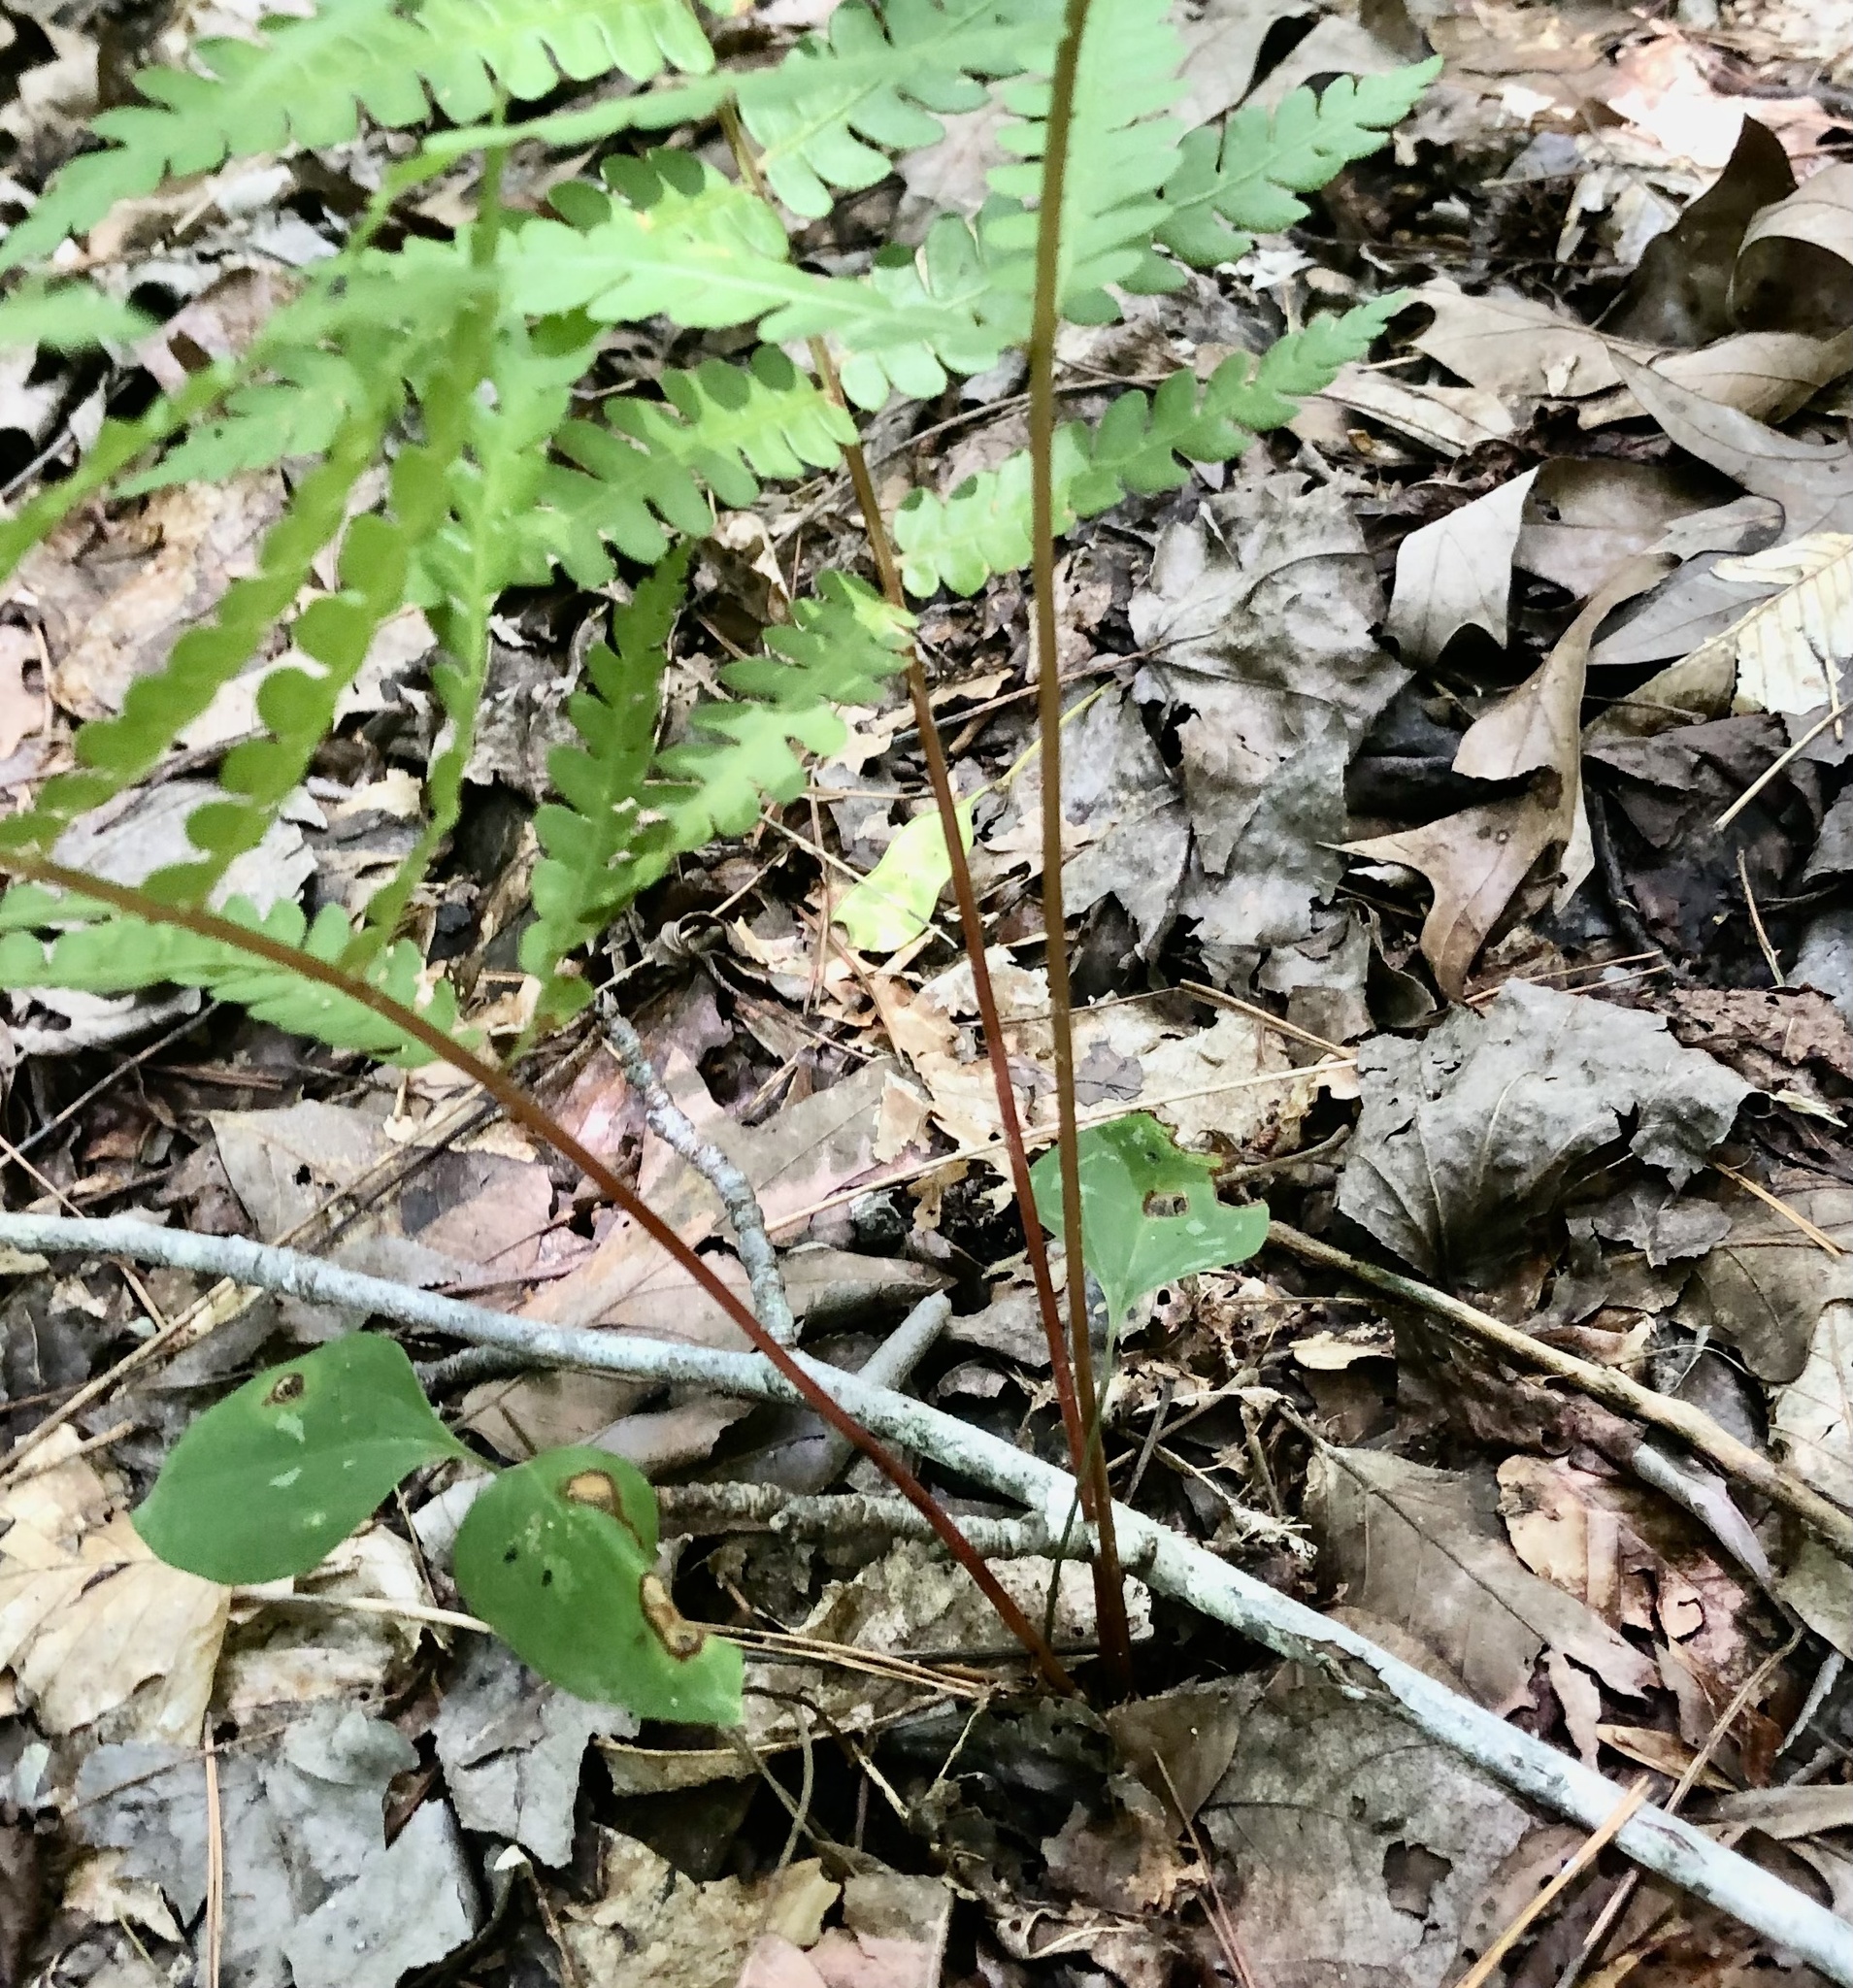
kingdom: Plantae
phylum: Tracheophyta
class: Polypodiopsida
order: Osmundales
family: Osmundaceae
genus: Osmundastrum
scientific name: Osmundastrum cinnamomeum
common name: Cinnamon fern
